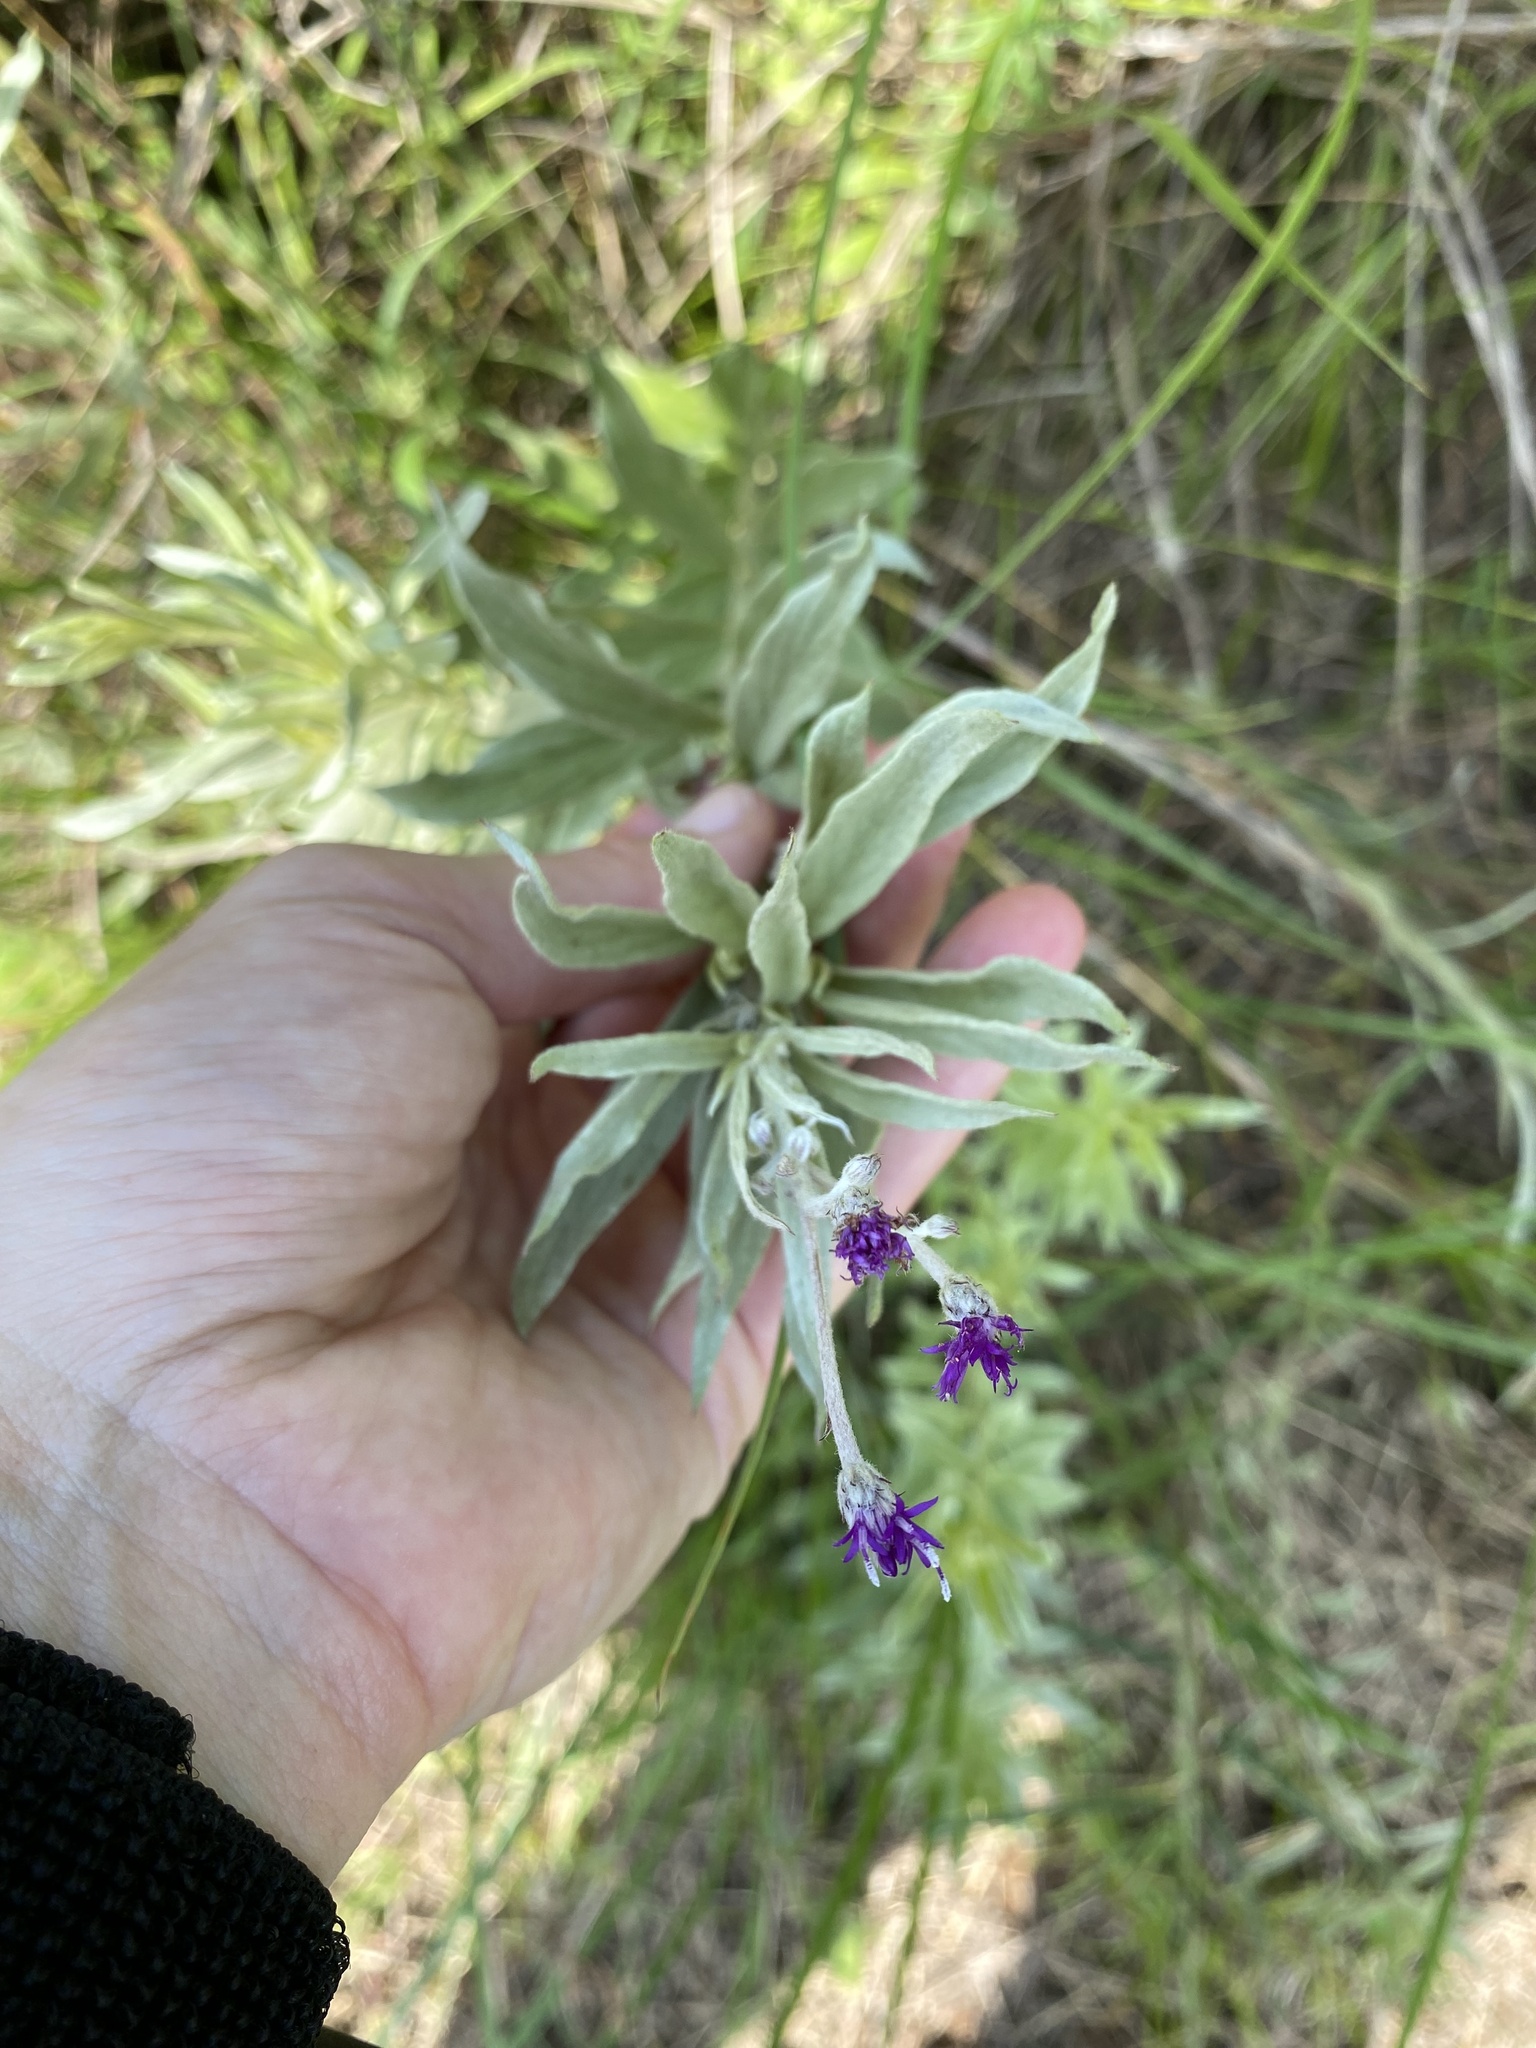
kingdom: Plantae
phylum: Tracheophyta
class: Magnoliopsida
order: Asterales
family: Asteraceae
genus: Hilliardiella
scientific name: Hilliardiella aristata
